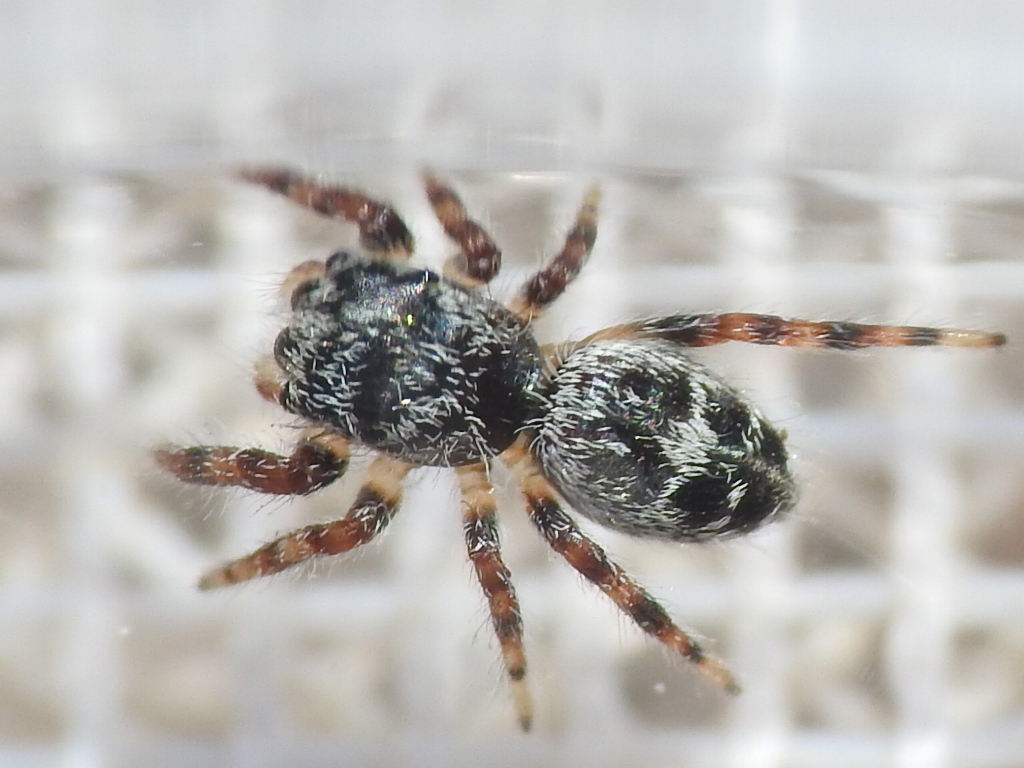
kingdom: Animalia
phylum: Arthropoda
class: Arachnida
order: Araneae
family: Salticidae
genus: Phidippus
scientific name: Phidippus carolinensis
